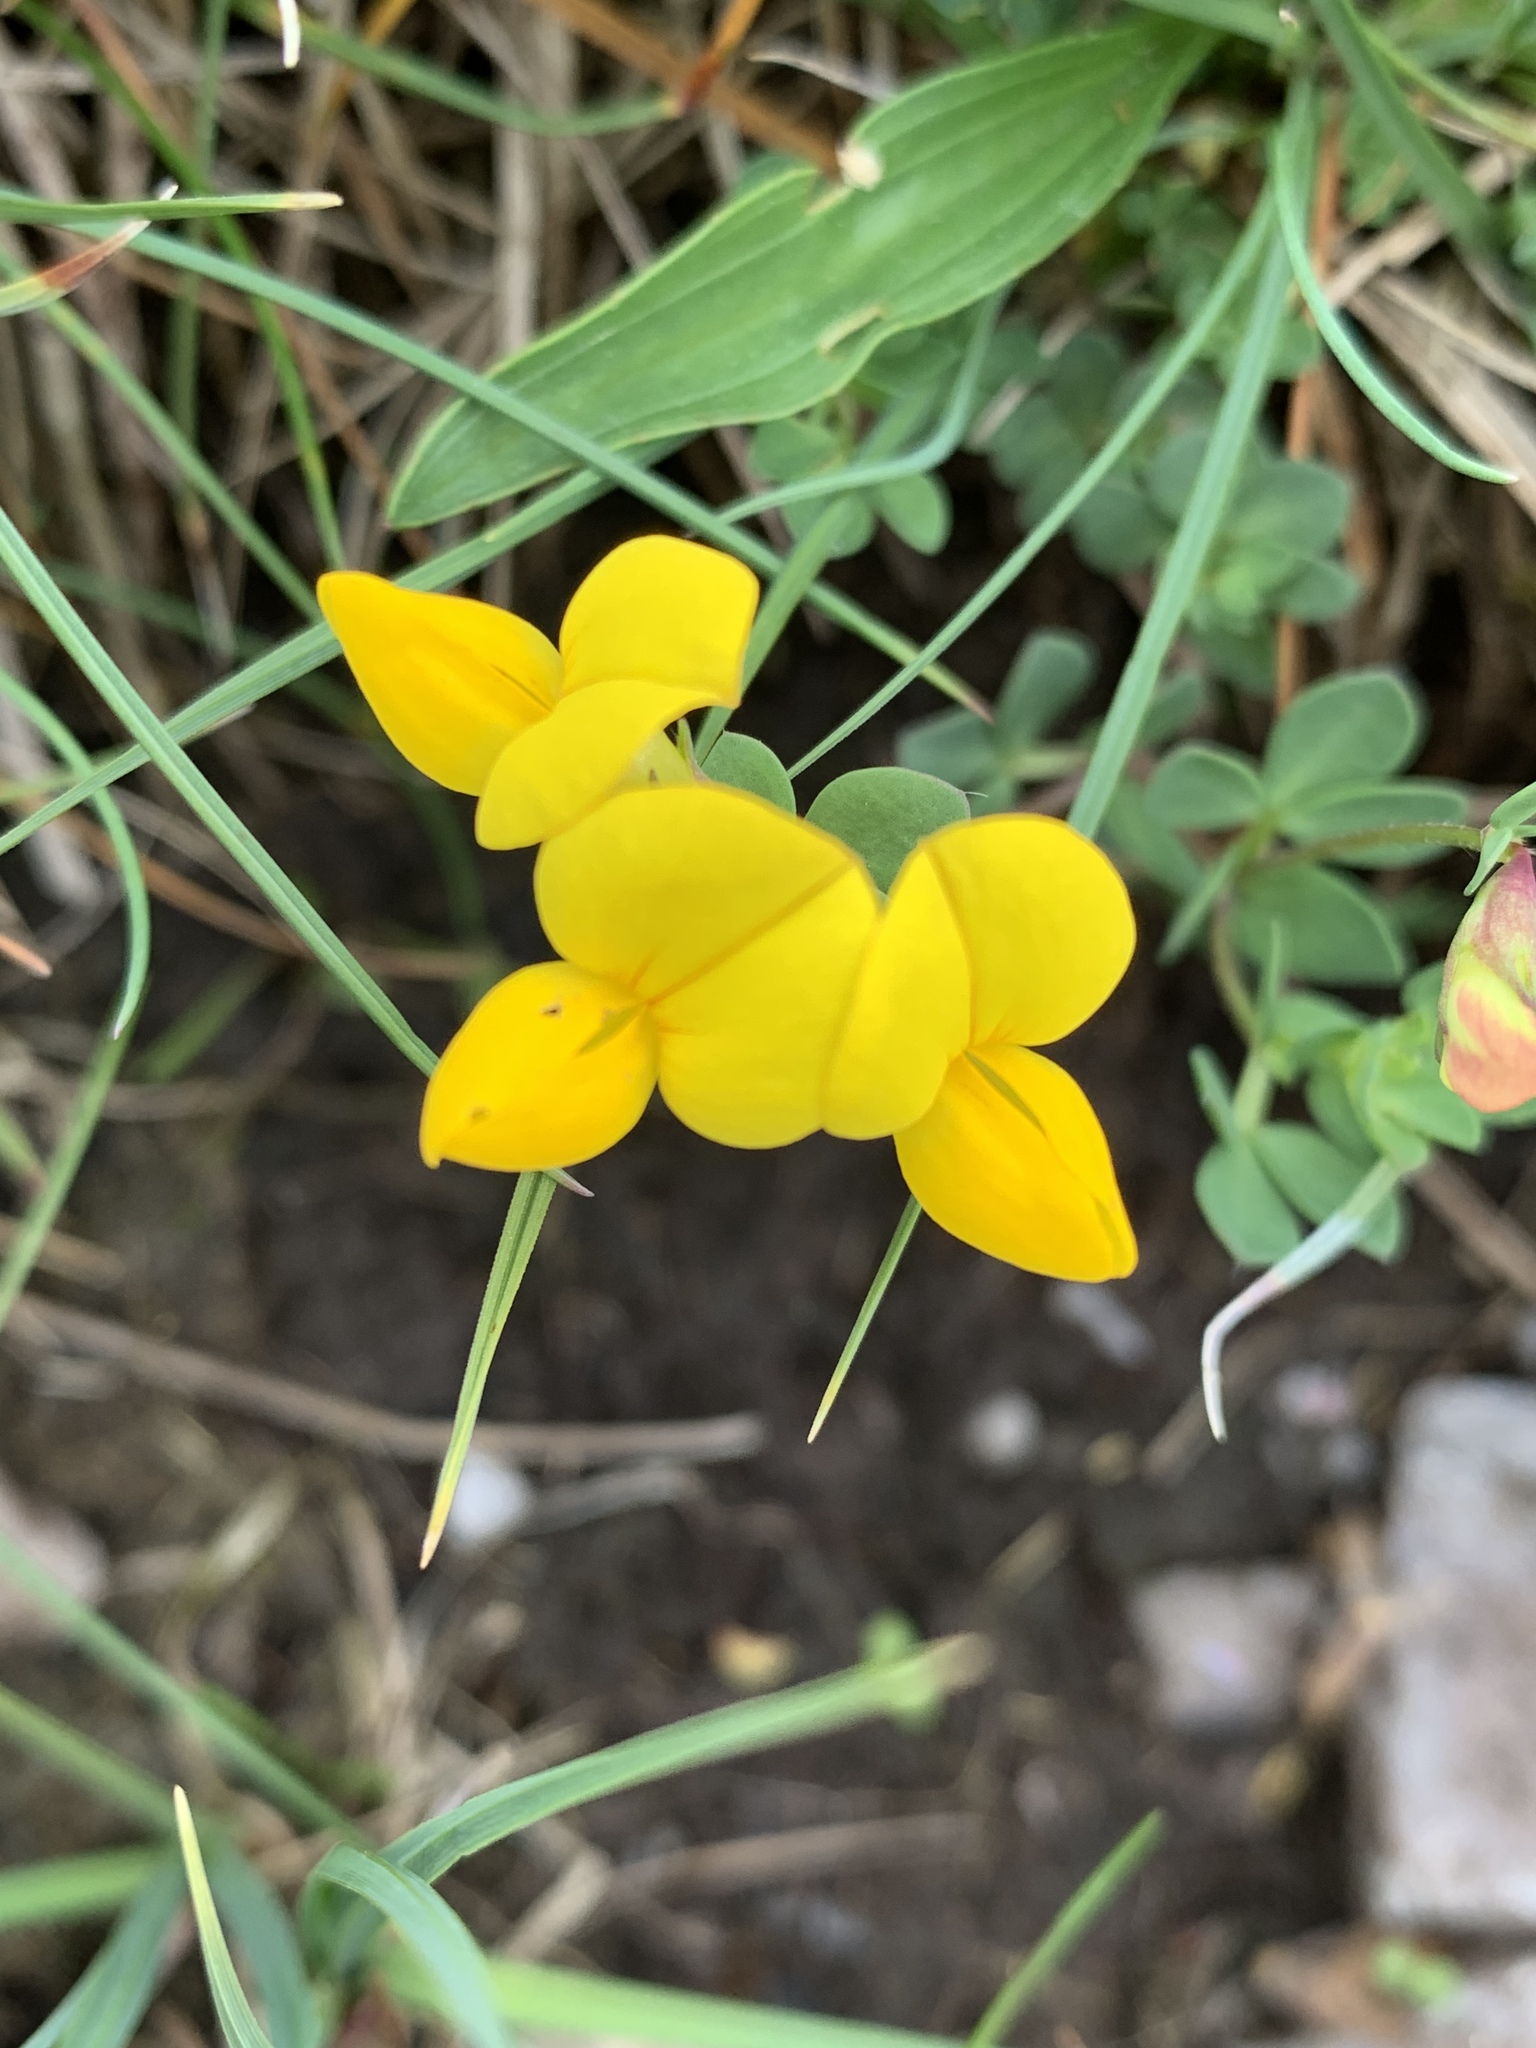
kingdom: Plantae
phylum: Tracheophyta
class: Magnoliopsida
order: Fabales
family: Fabaceae
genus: Lotus
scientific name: Lotus corniculatus
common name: Common bird's-foot-trefoil
